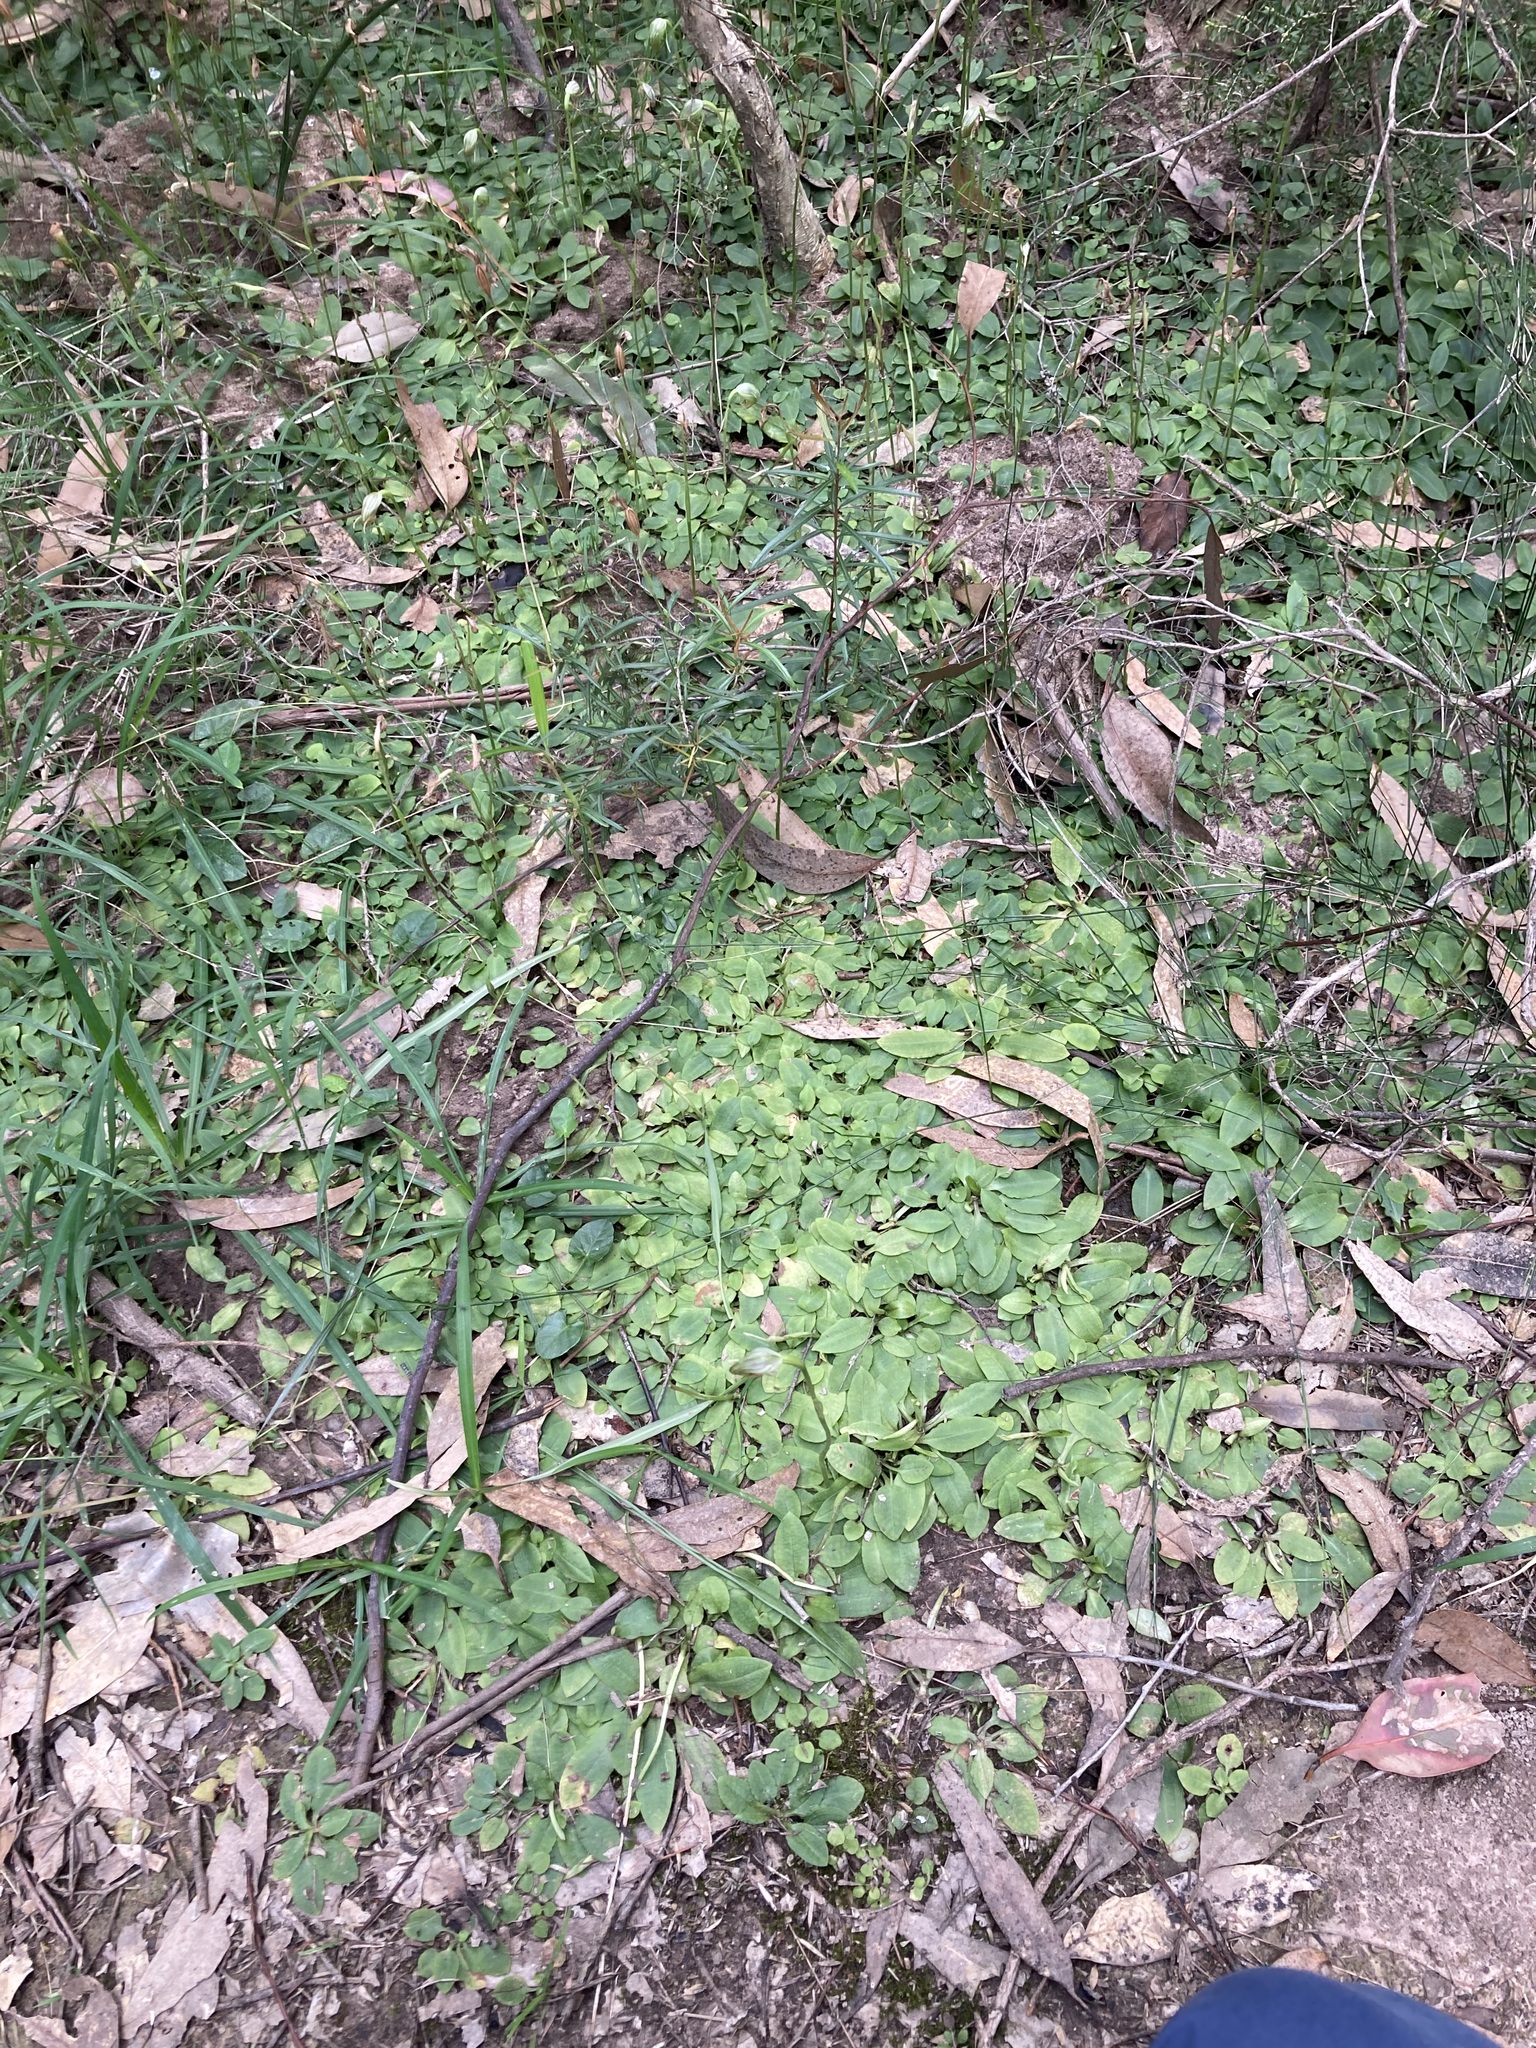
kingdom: Plantae
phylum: Tracheophyta
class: Liliopsida
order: Asparagales
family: Orchidaceae
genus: Pterostylis
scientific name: Pterostylis nutans
